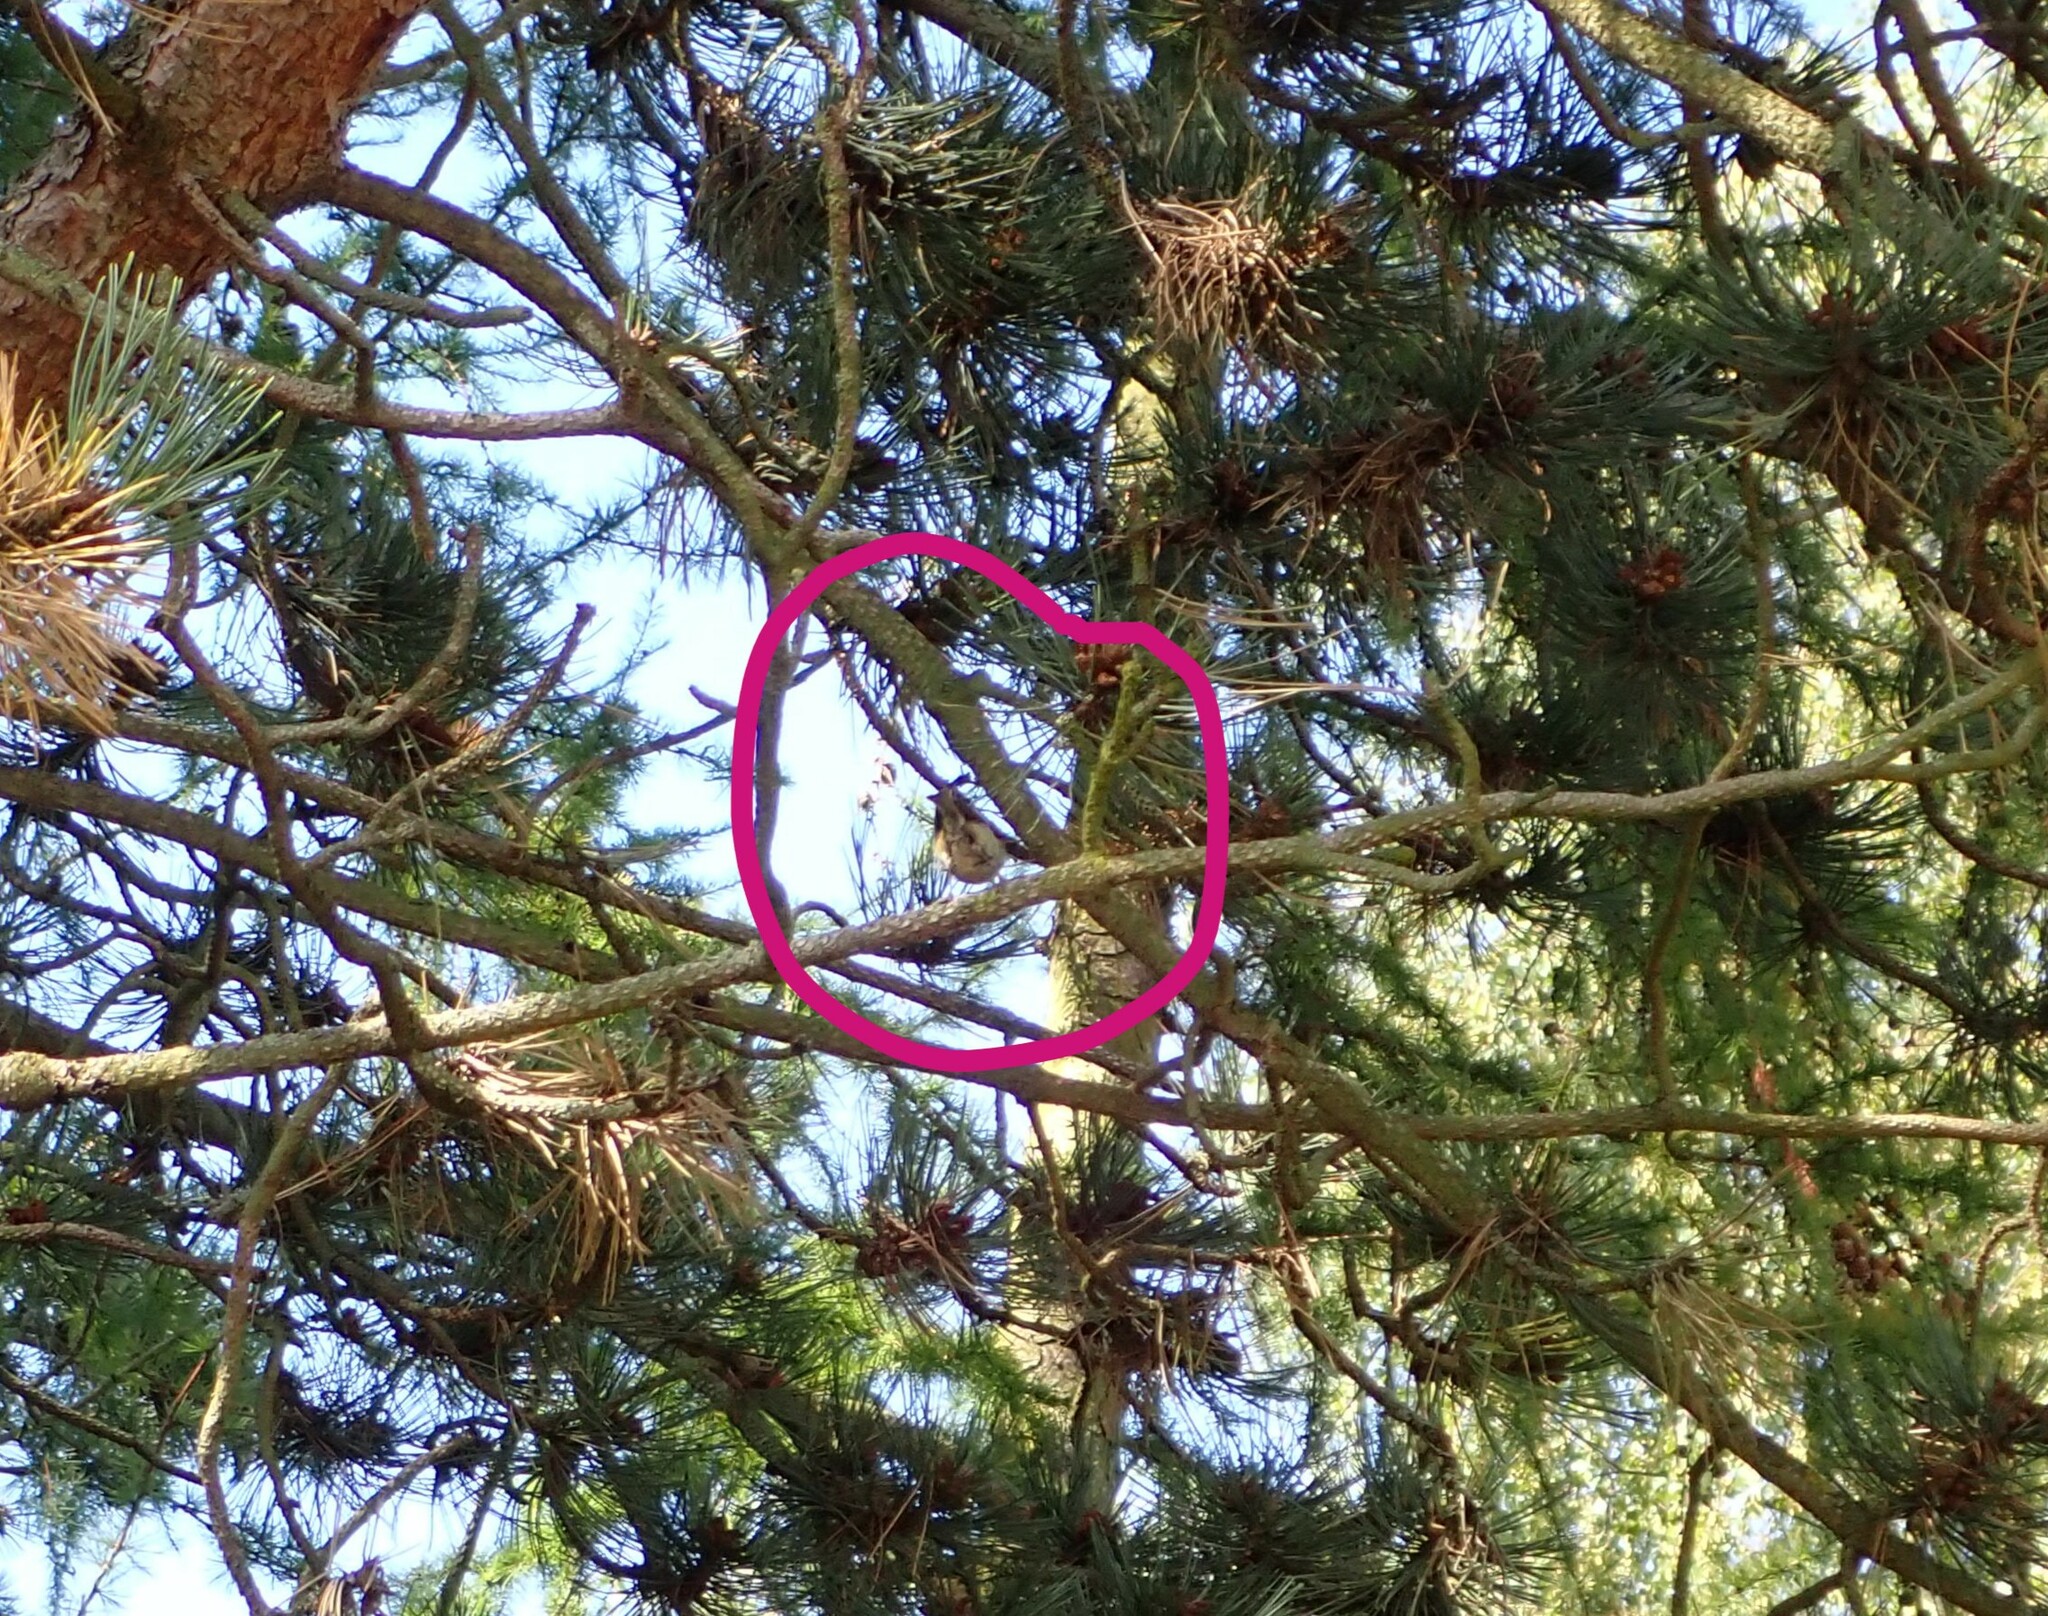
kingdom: Animalia
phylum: Chordata
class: Aves
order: Passeriformes
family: Regulidae
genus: Regulus
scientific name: Regulus regulus
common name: Goldcrest
